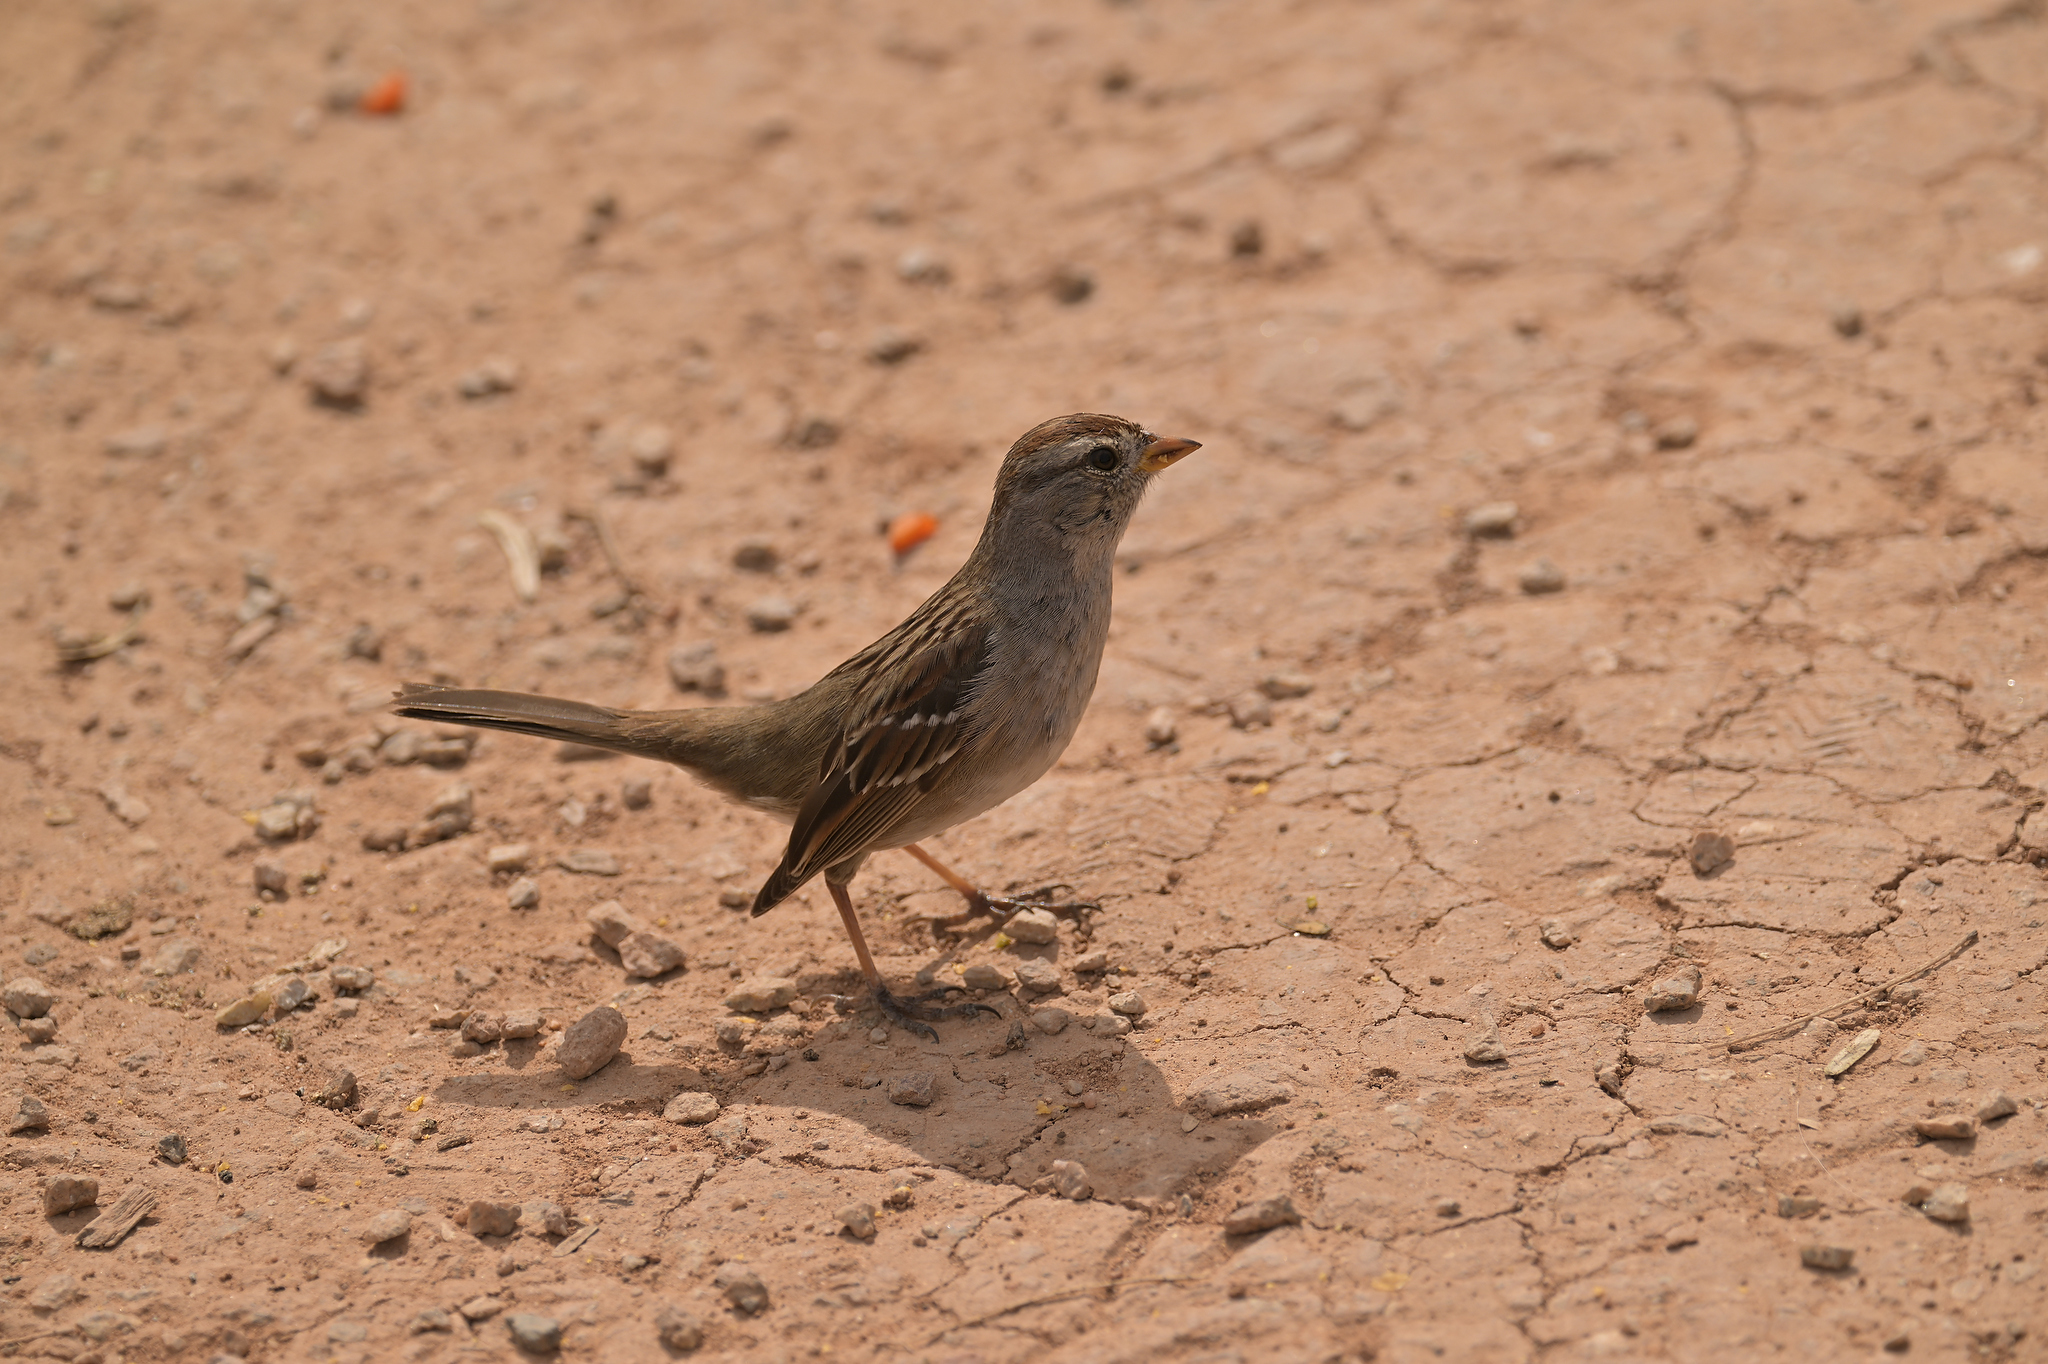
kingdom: Animalia
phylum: Chordata
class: Aves
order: Passeriformes
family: Passerellidae
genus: Zonotrichia
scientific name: Zonotrichia leucophrys
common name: White-crowned sparrow
